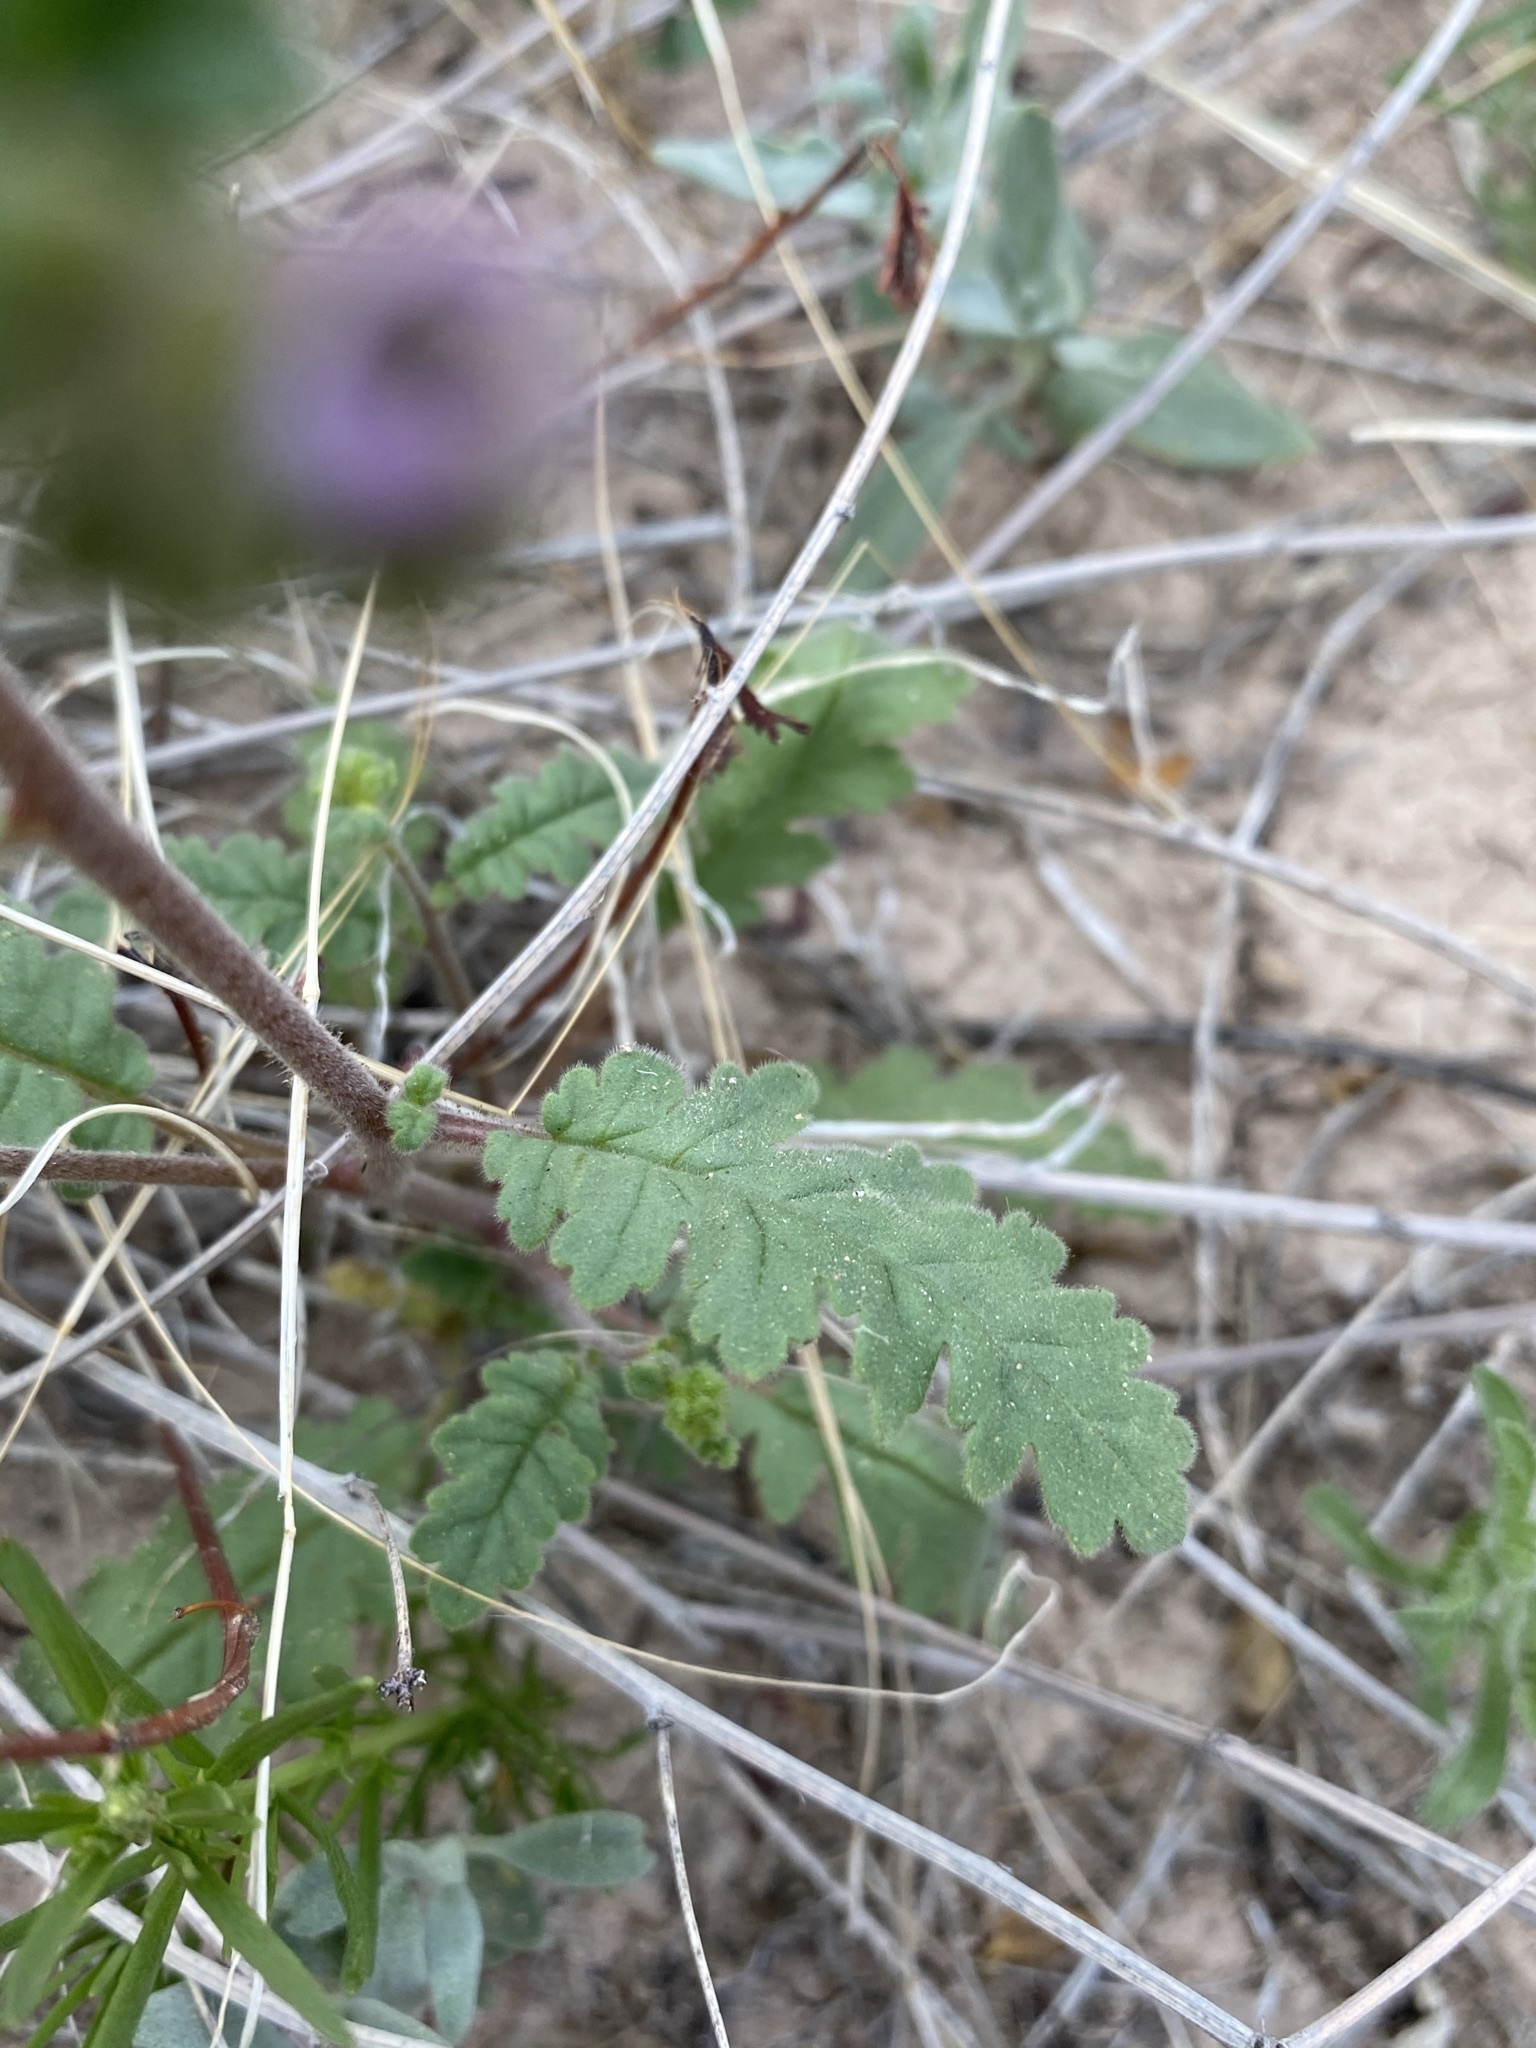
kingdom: Plantae
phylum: Tracheophyta
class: Magnoliopsida
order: Boraginales
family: Hydrophyllaceae
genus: Phacelia
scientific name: Phacelia coerulea
